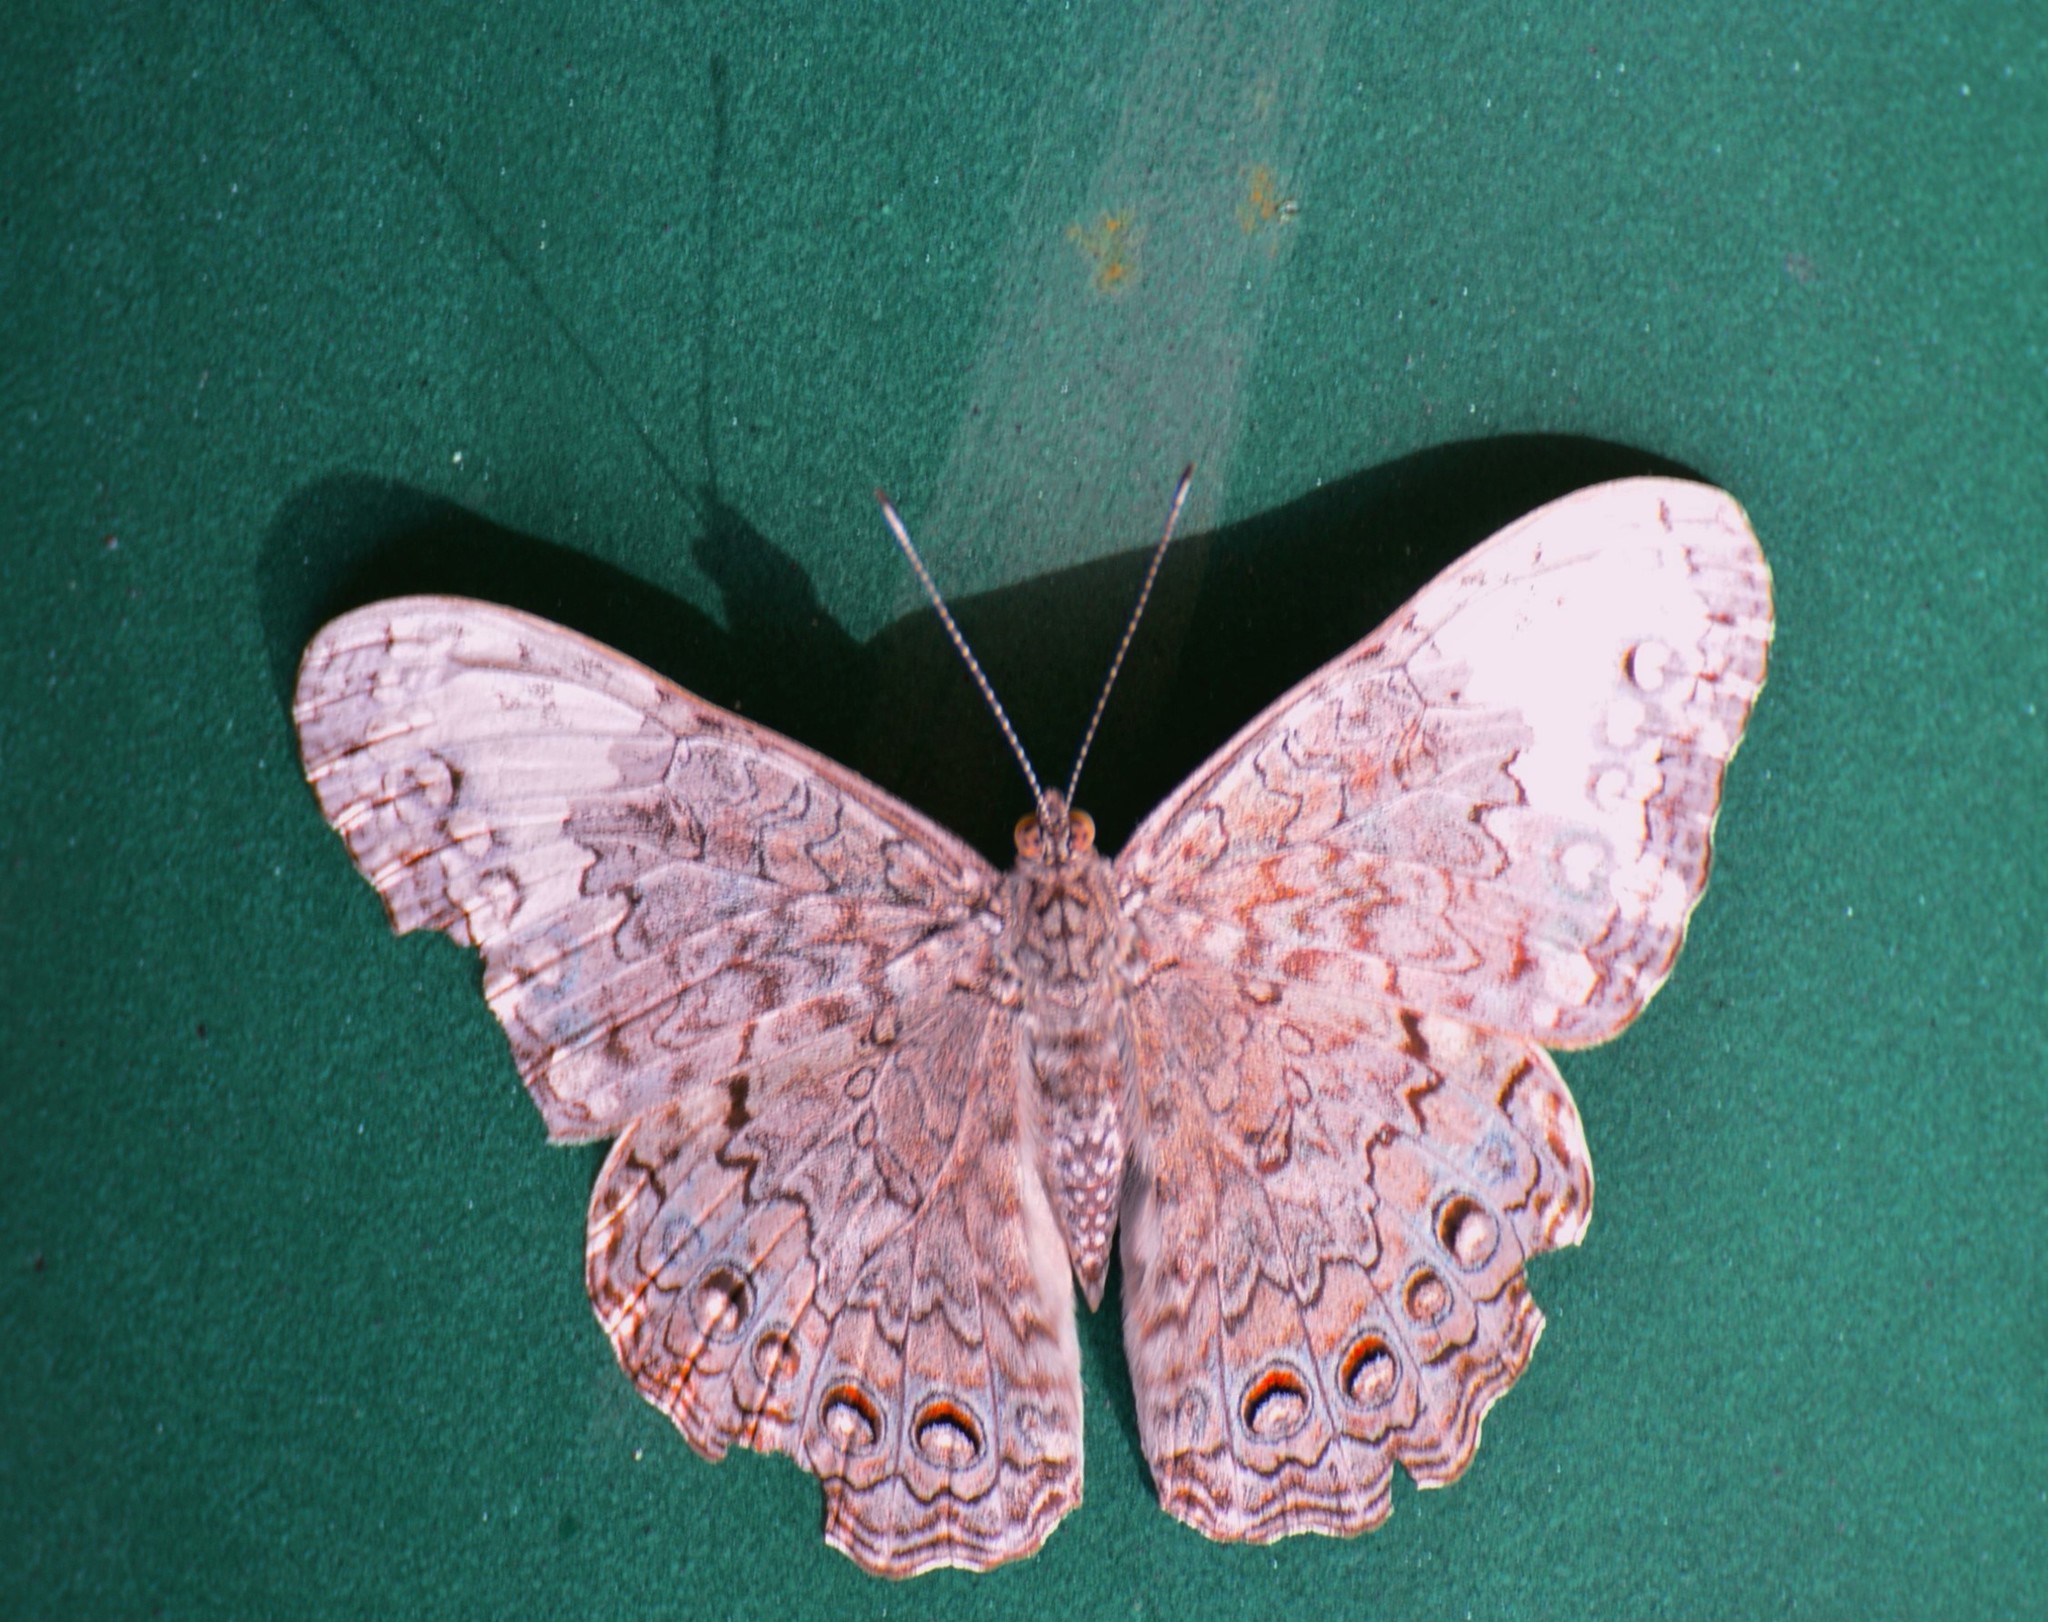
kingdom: Animalia
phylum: Arthropoda
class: Insecta
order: Lepidoptera
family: Nymphalidae
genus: Hamadryas
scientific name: Hamadryas februa
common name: Gray cracker
